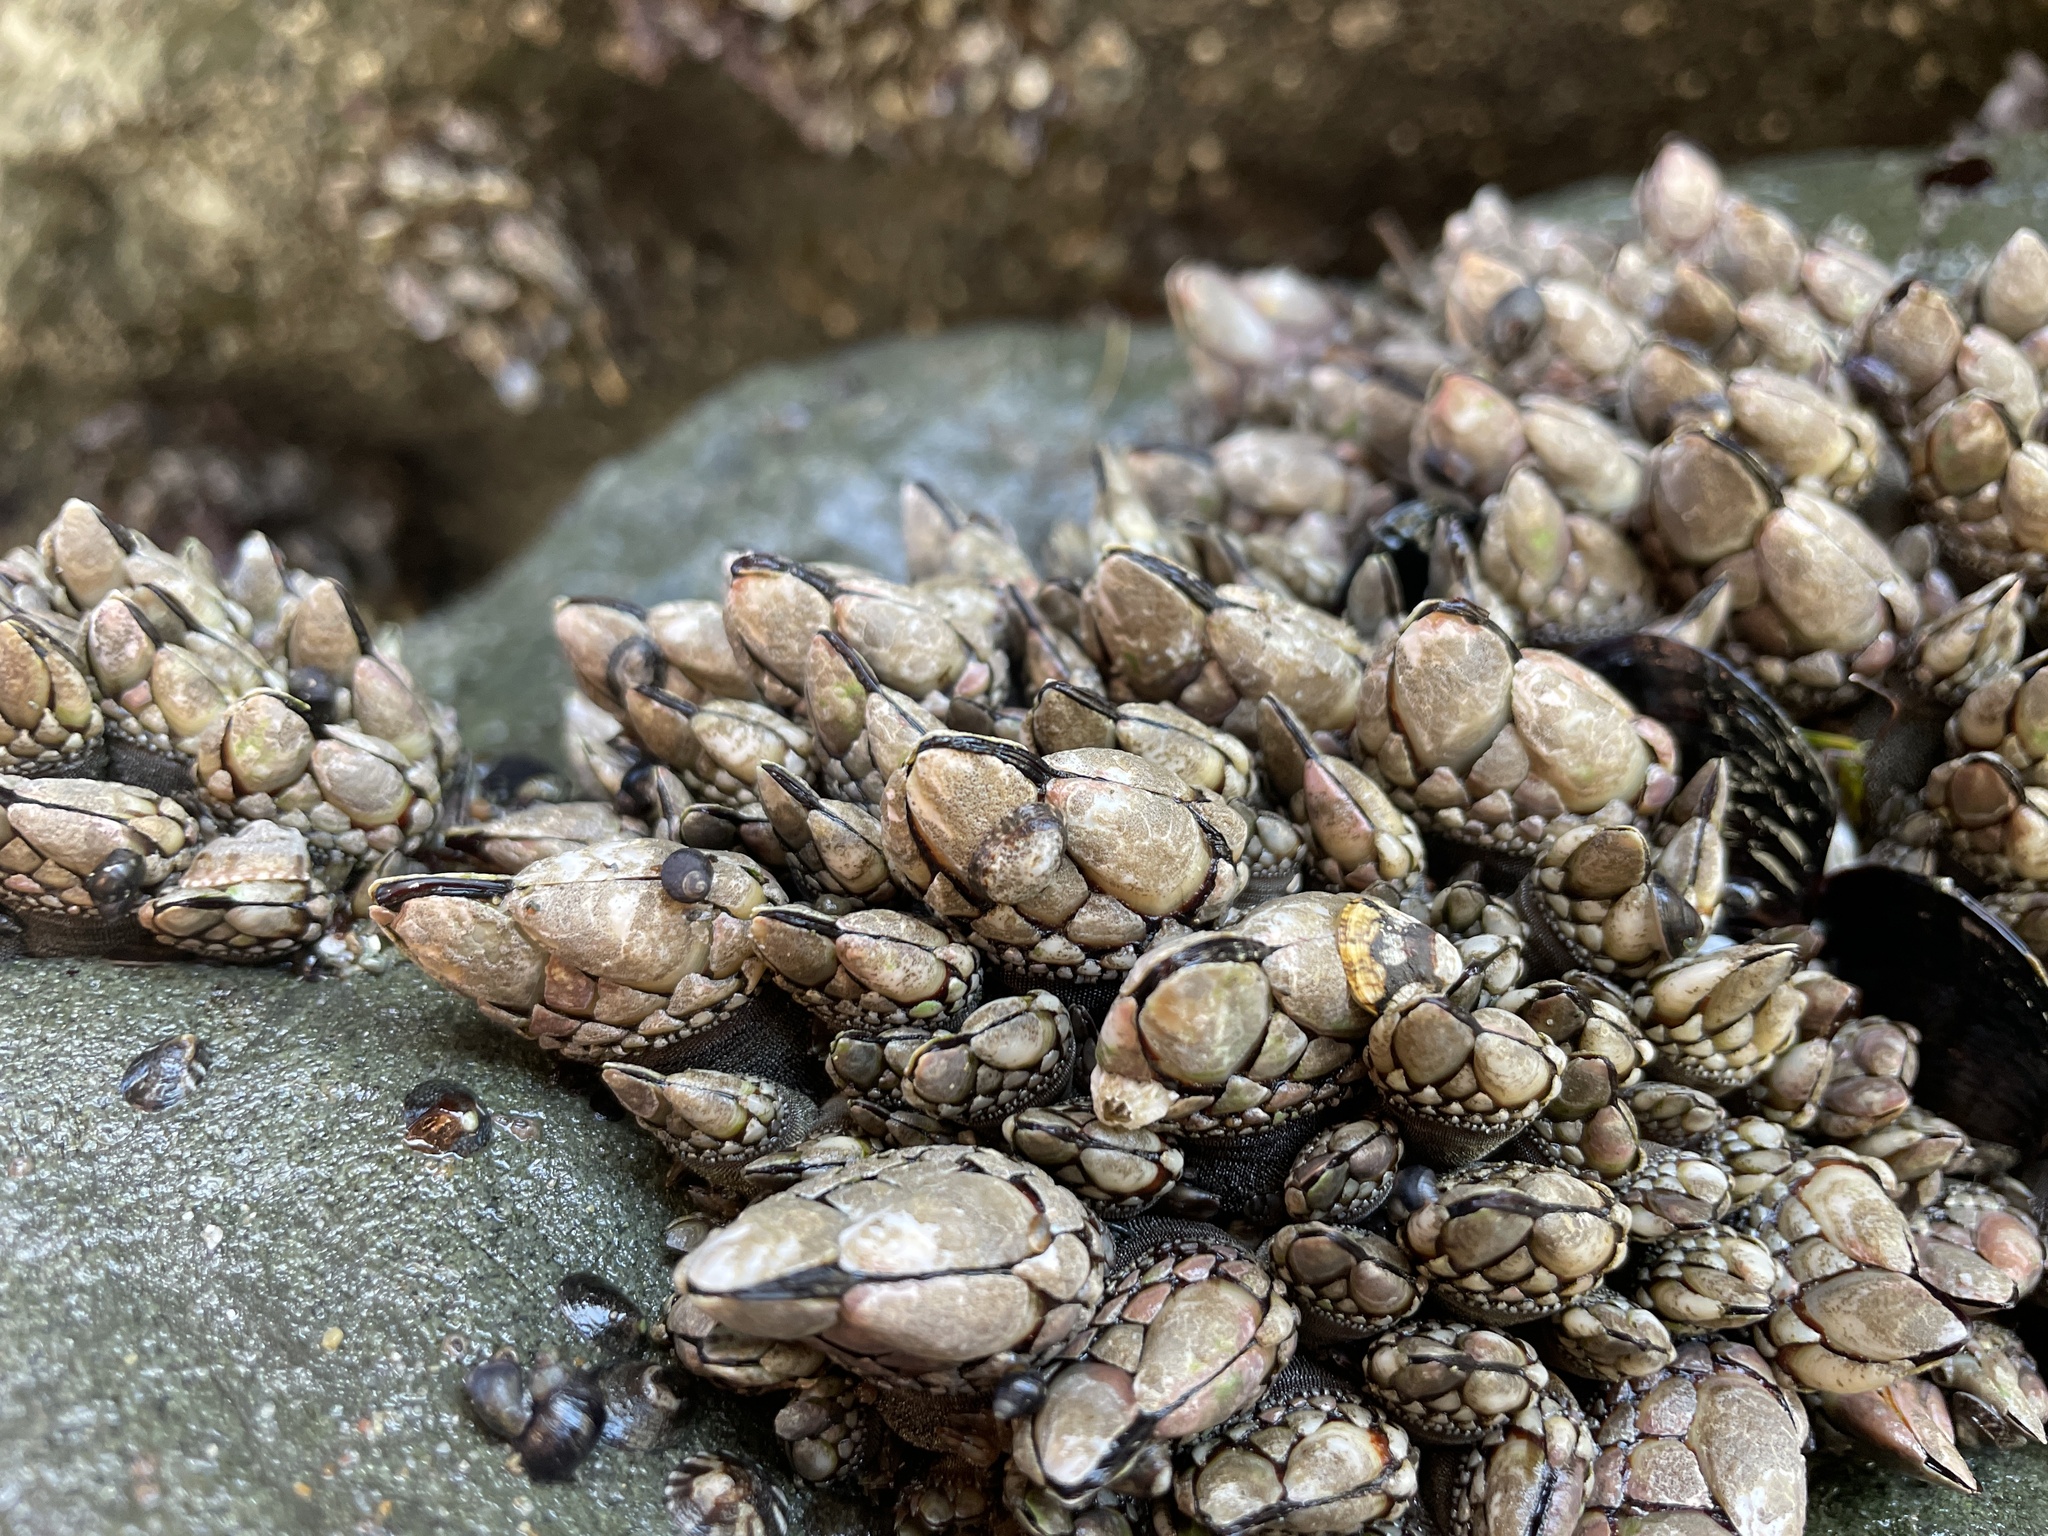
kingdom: Animalia
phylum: Arthropoda
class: Maxillopoda
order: Pedunculata
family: Pollicipedidae
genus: Pollicipes
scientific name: Pollicipes polymerus
